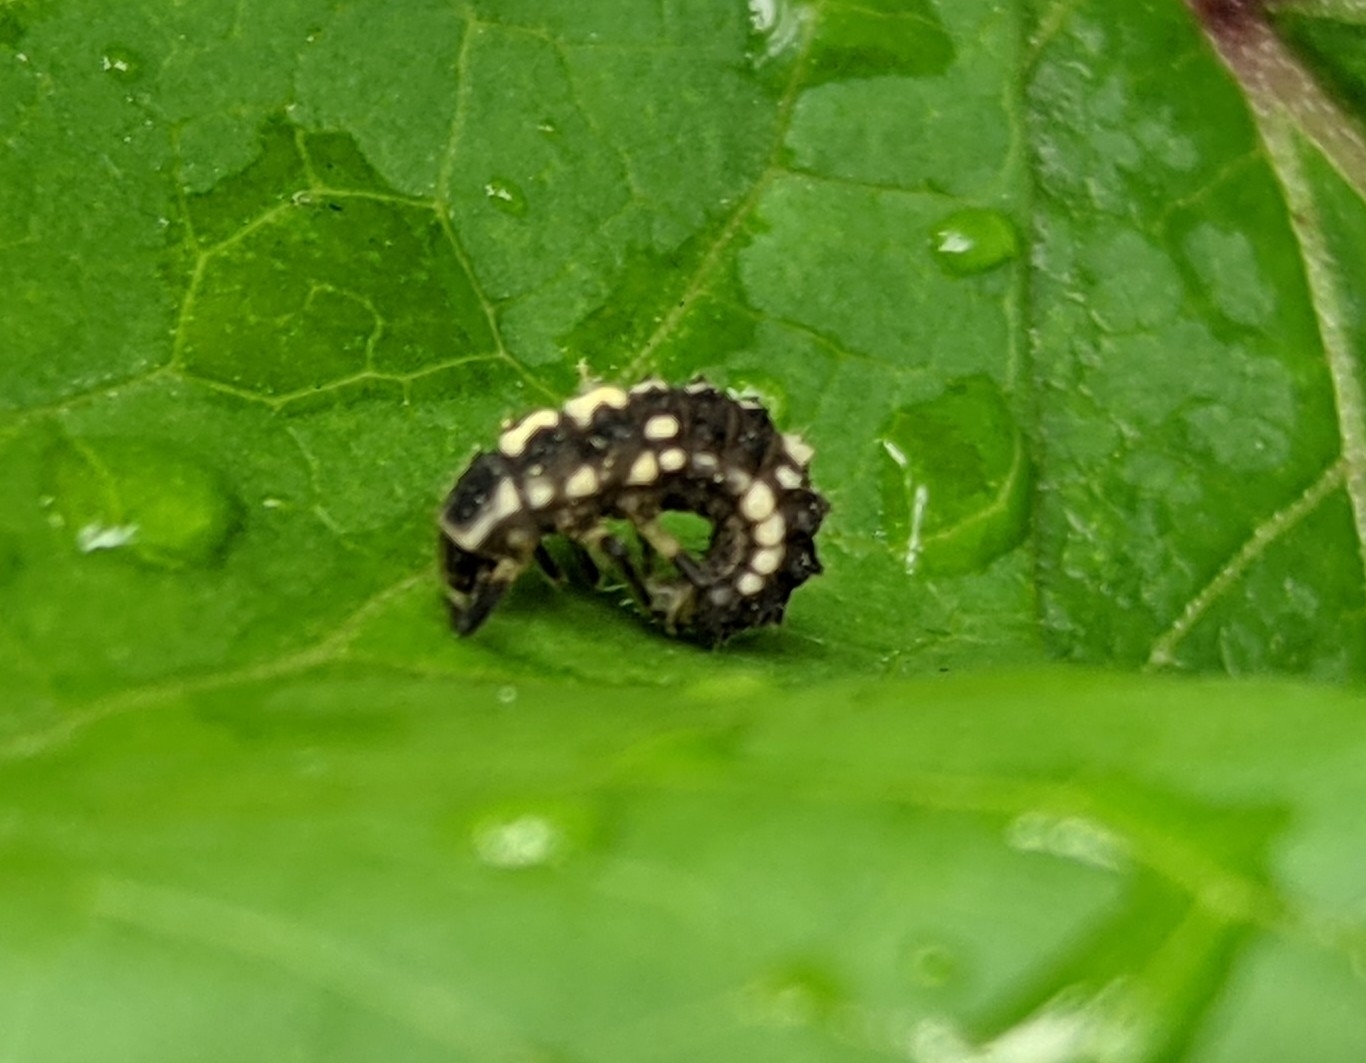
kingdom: Animalia
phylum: Arthropoda
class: Insecta
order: Coleoptera
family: Coccinellidae
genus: Propylaea
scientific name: Propylaea quatuordecimpunctata
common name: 14-spotted ladybird beetle
